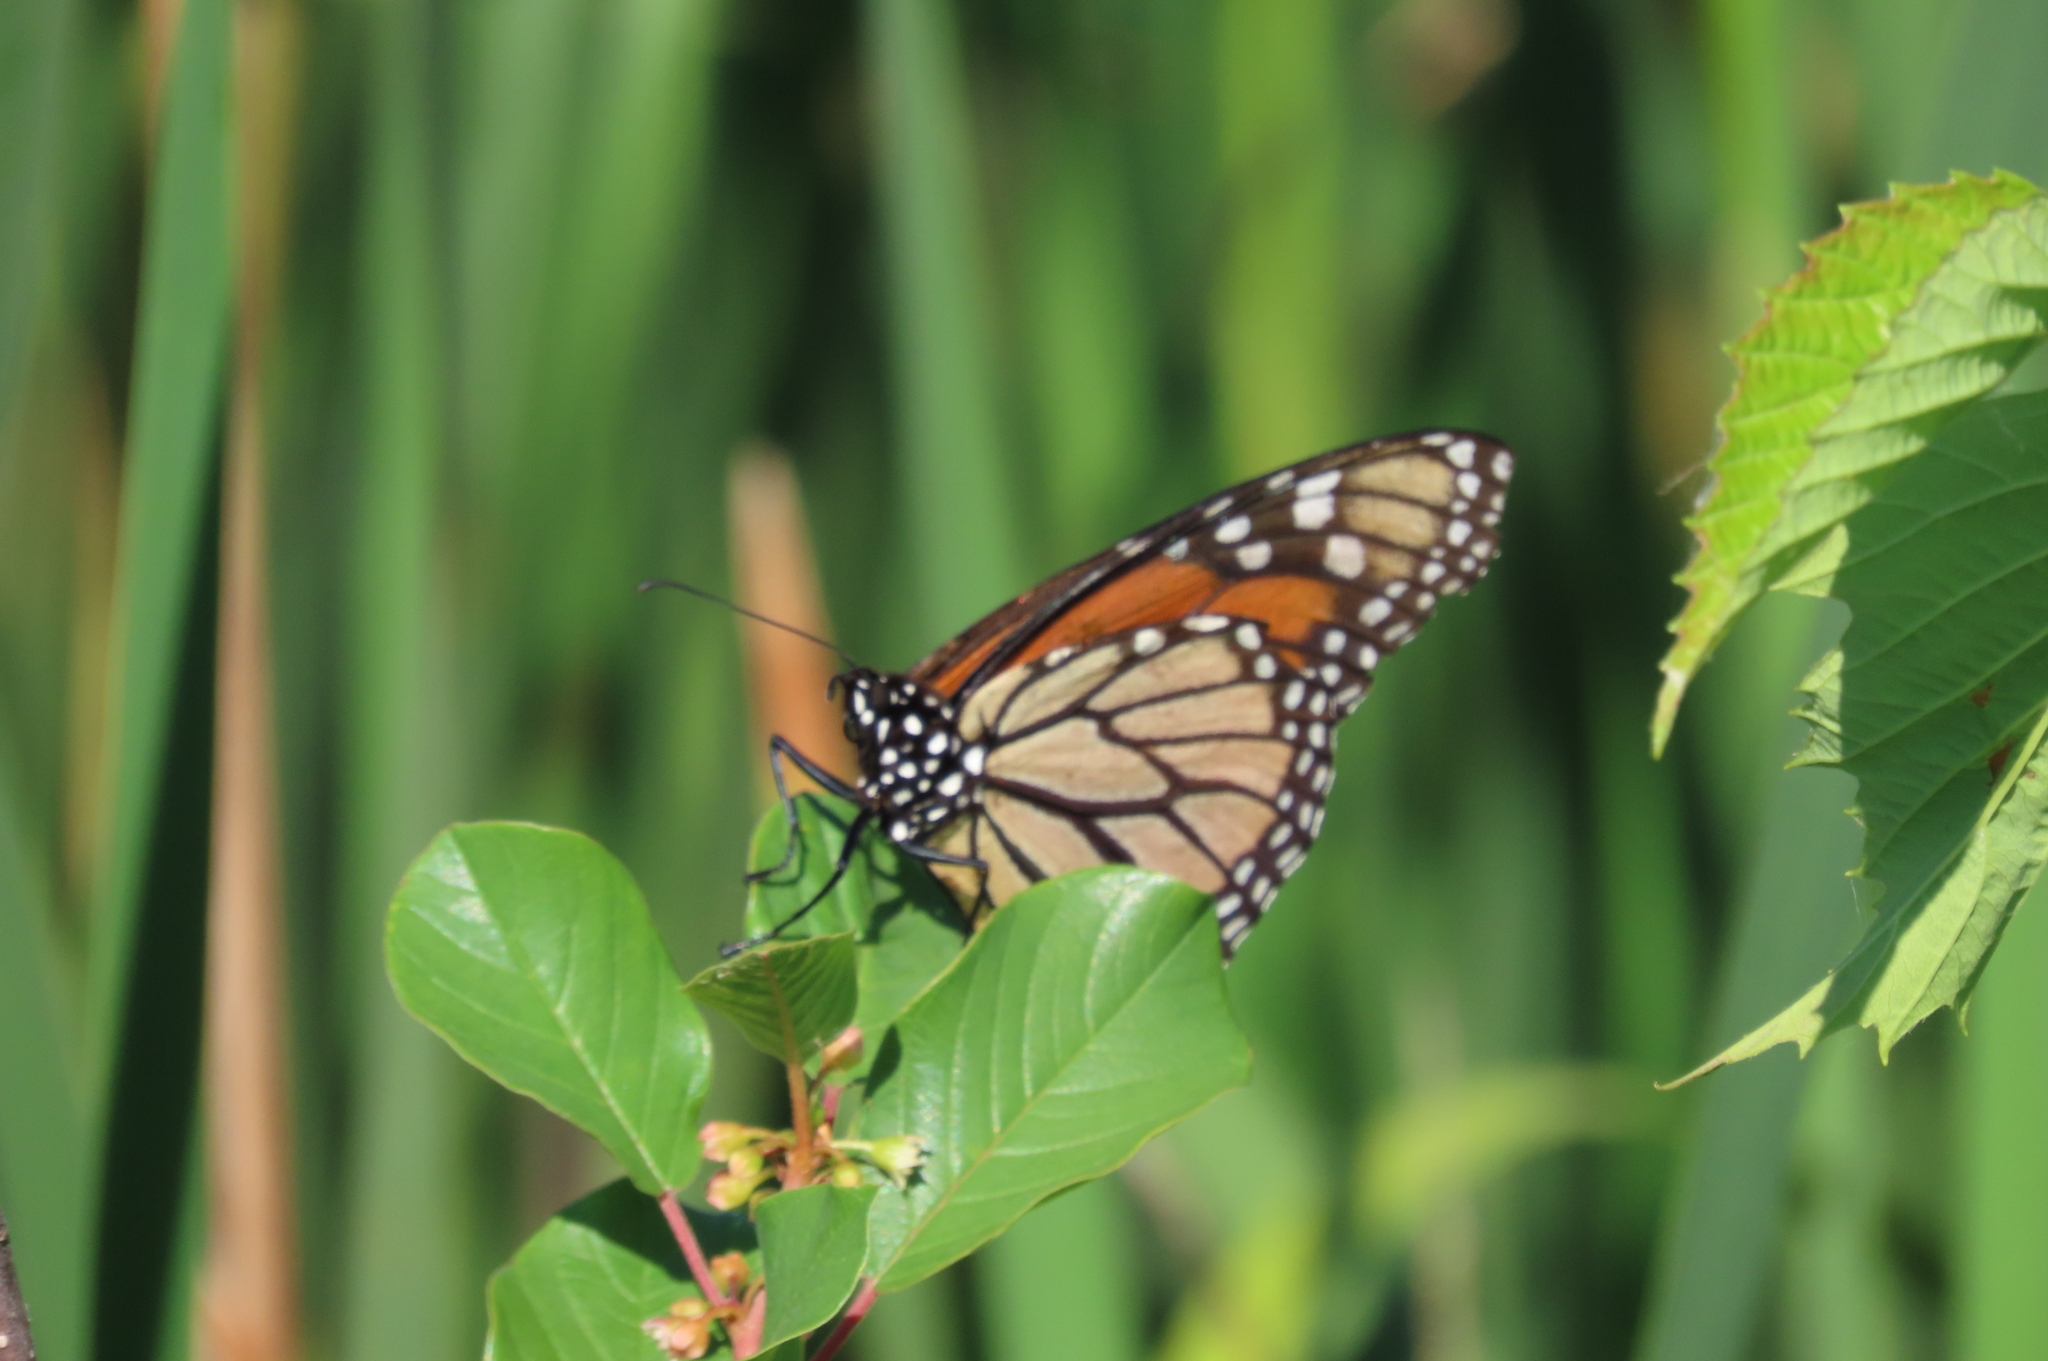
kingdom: Animalia
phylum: Arthropoda
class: Insecta
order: Lepidoptera
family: Nymphalidae
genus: Danaus
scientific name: Danaus plexippus
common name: Monarch
